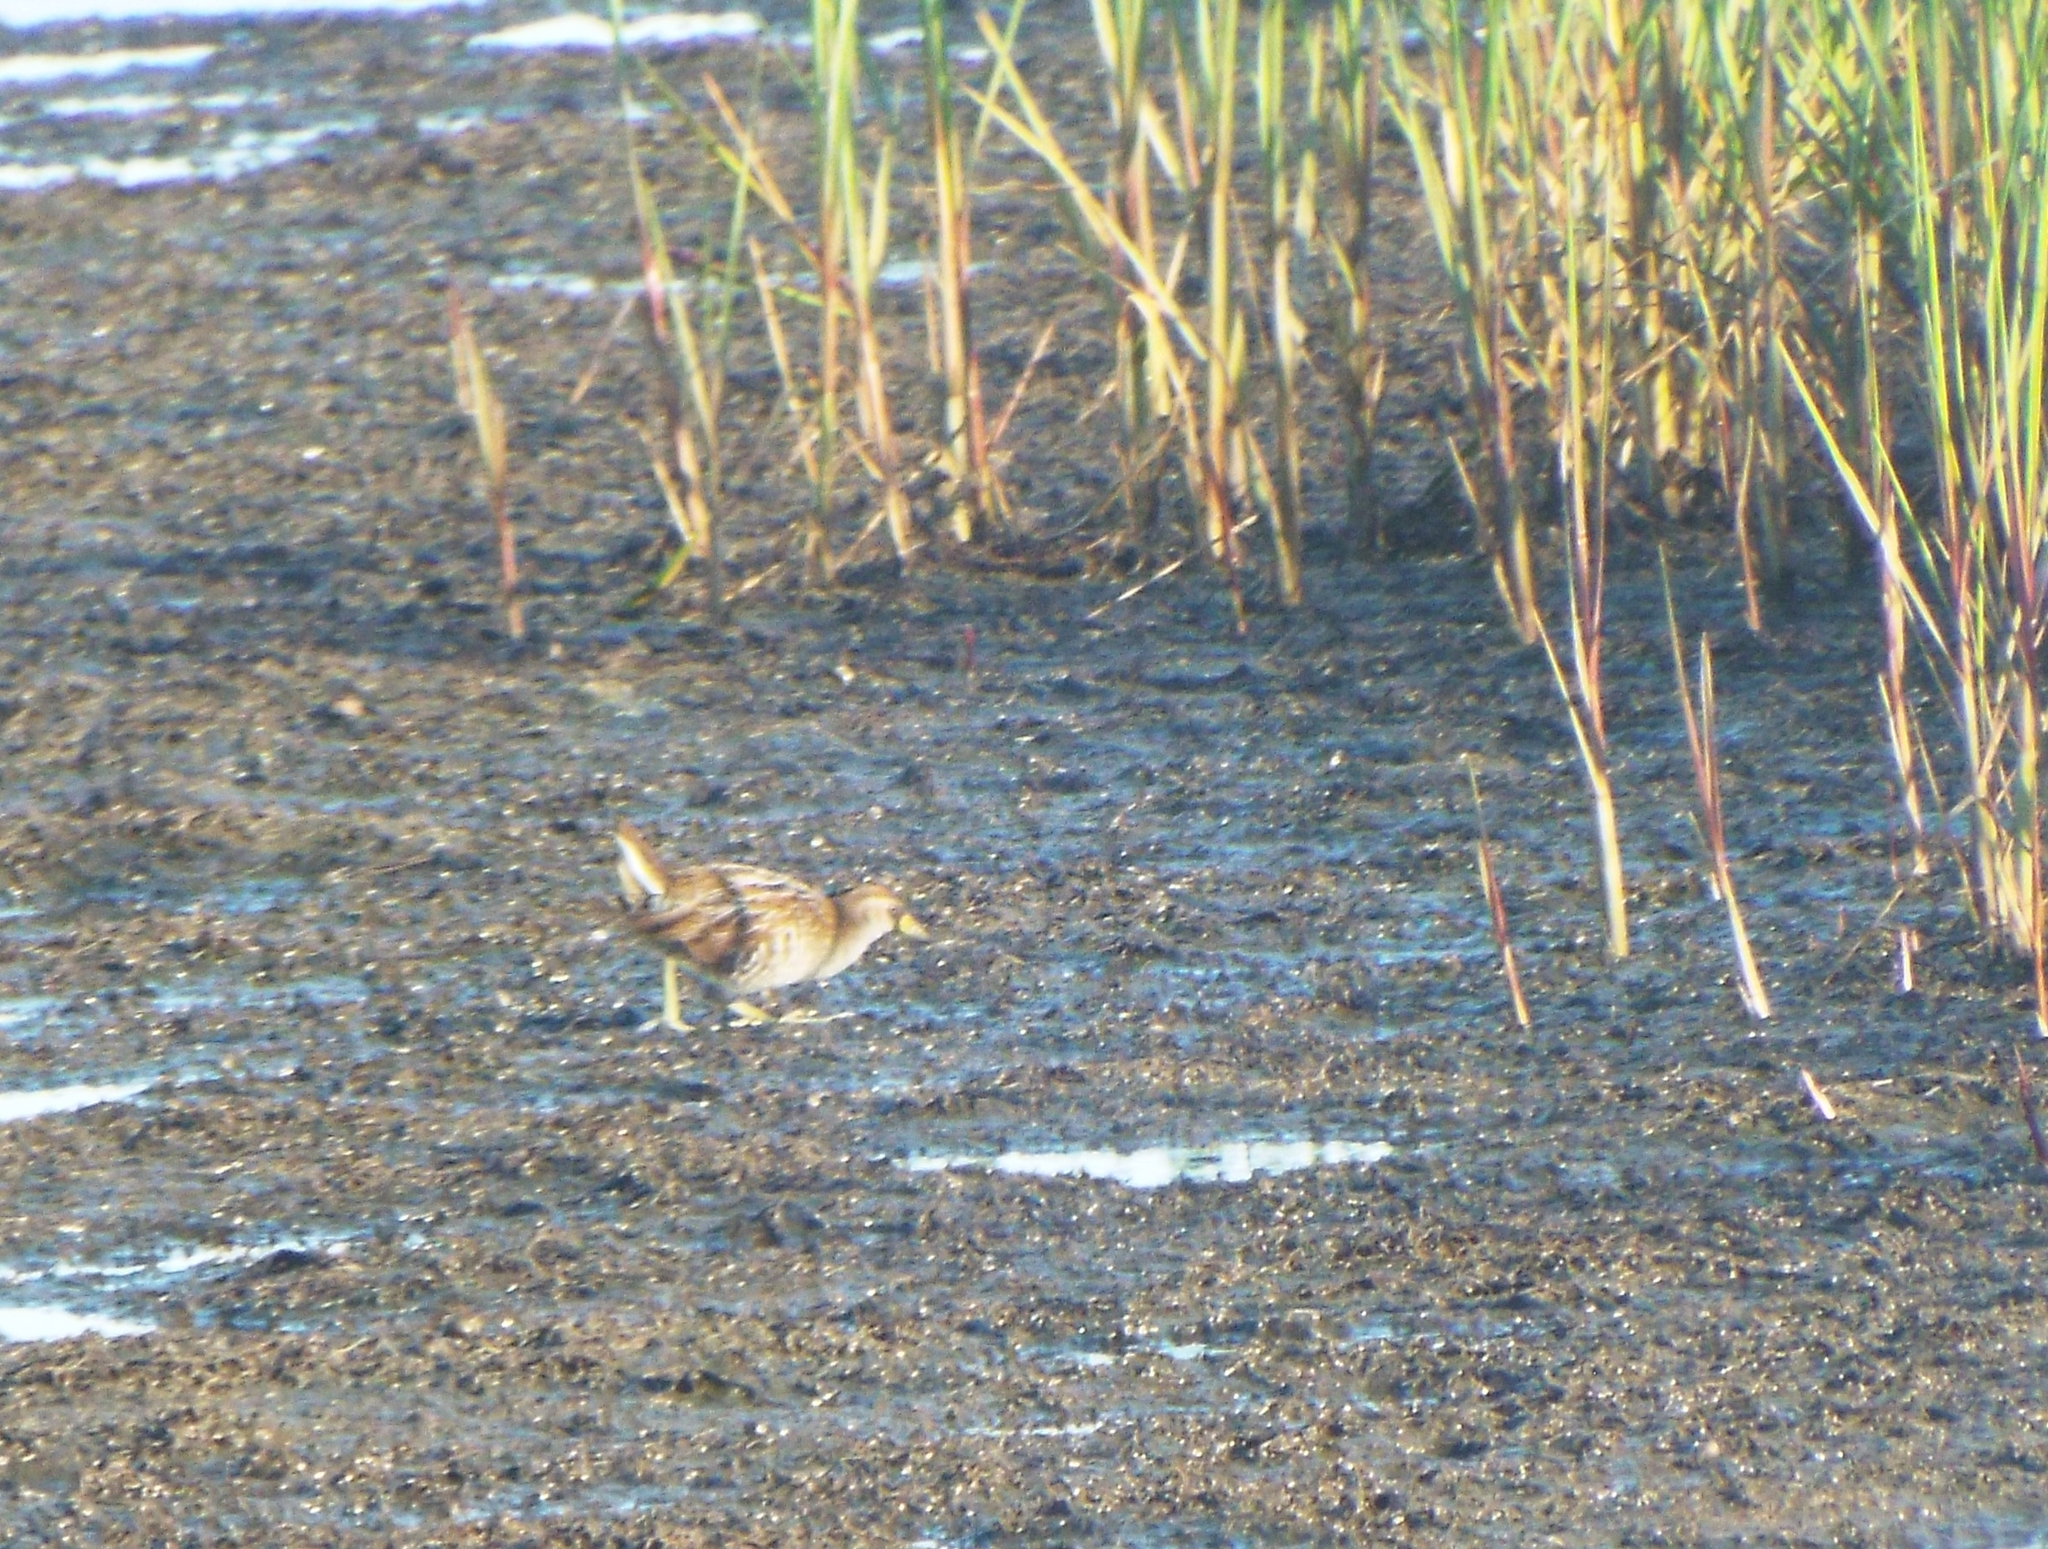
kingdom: Animalia
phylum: Chordata
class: Aves
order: Gruiformes
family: Rallidae
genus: Porzana
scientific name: Porzana carolina
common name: Sora
